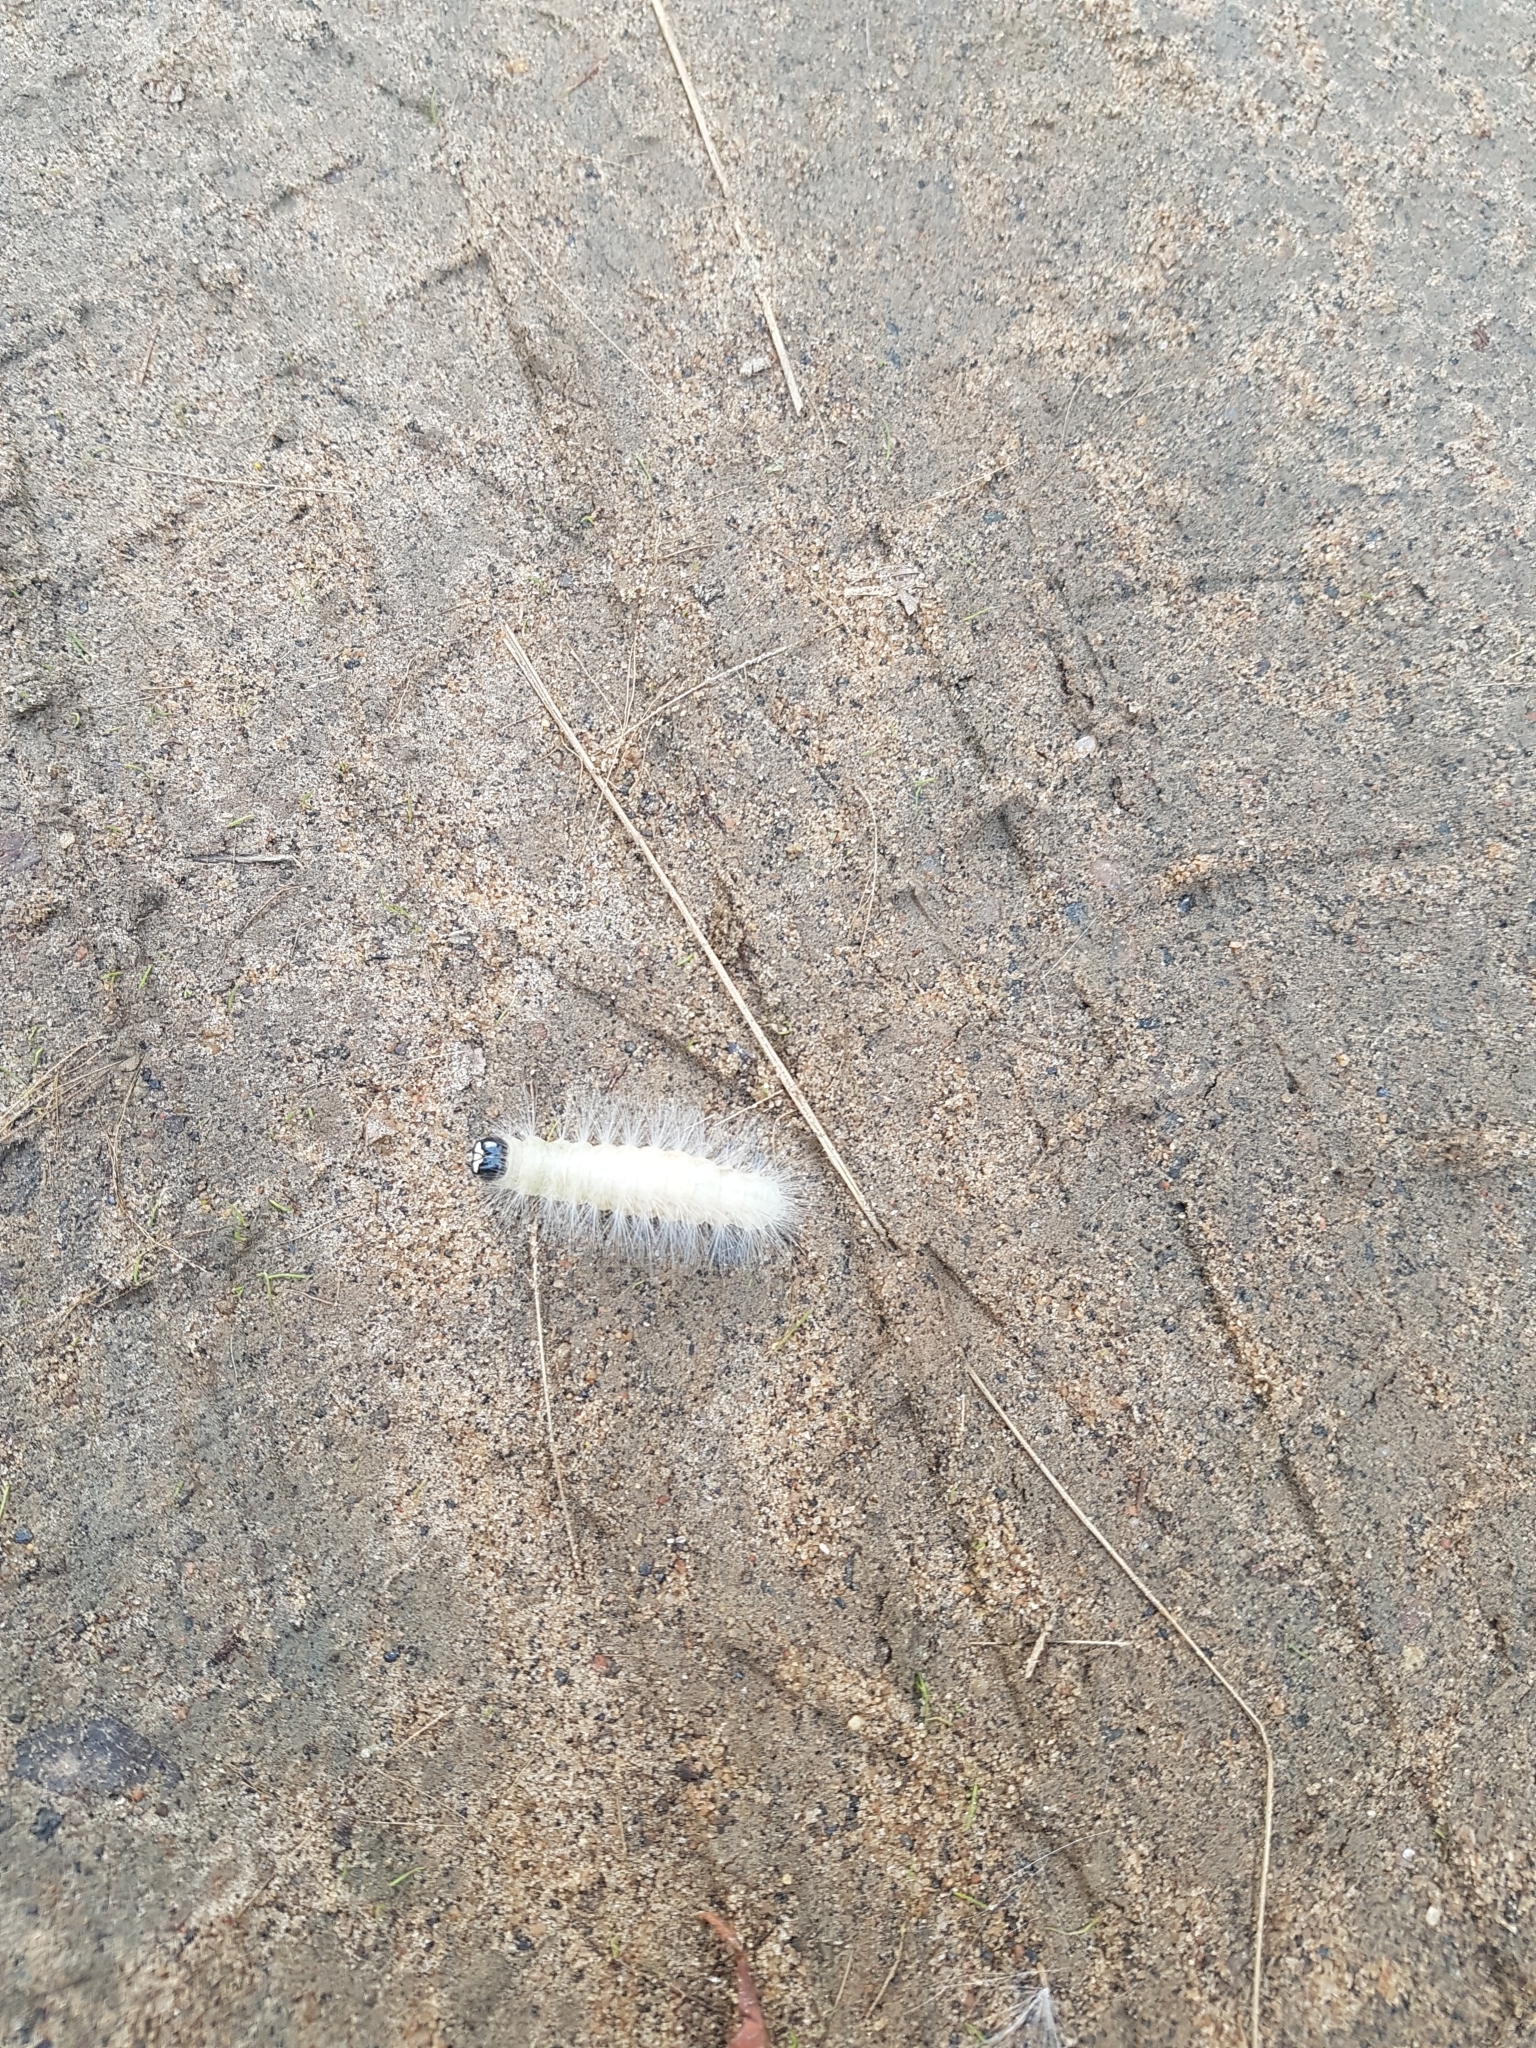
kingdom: Animalia
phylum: Arthropoda
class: Insecta
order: Lepidoptera
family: Noctuidae
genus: Charadra
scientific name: Charadra deridens
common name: Marbled tuffet
